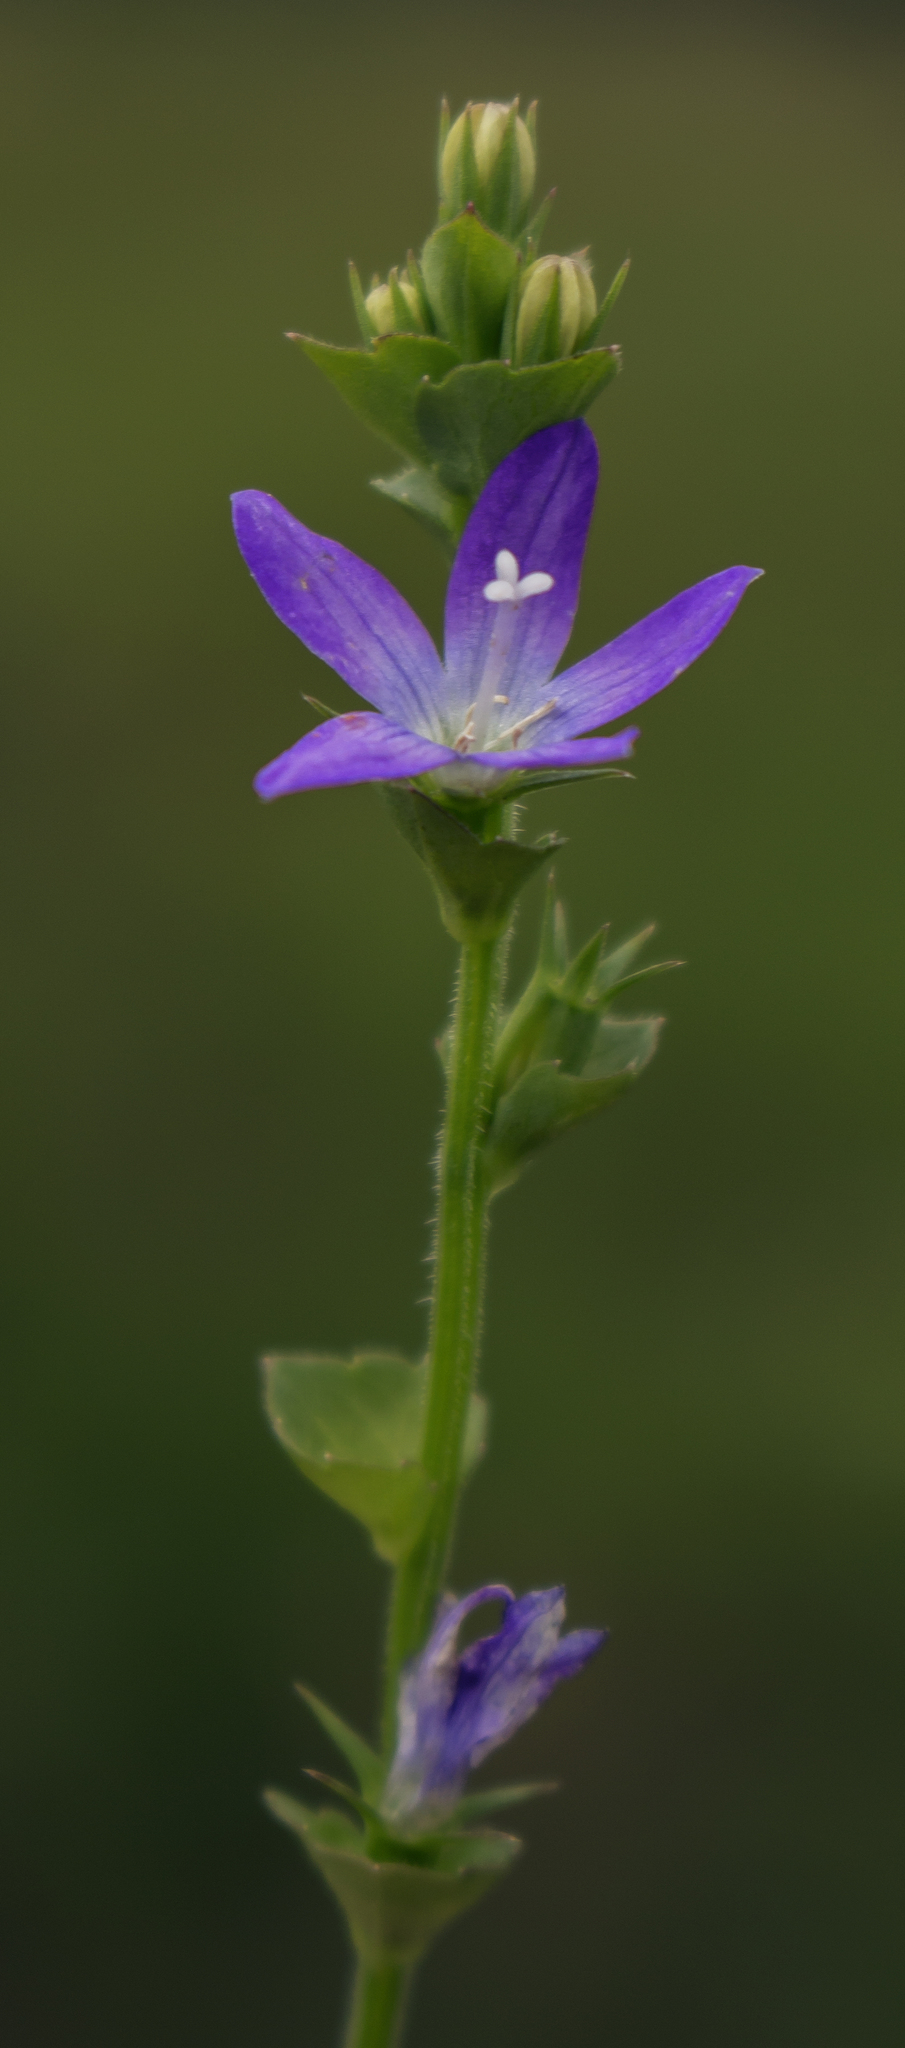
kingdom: Plantae
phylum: Tracheophyta
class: Magnoliopsida
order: Asterales
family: Campanulaceae
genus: Triodanis
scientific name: Triodanis perfoliata
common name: Clasping venus' looking-glass
